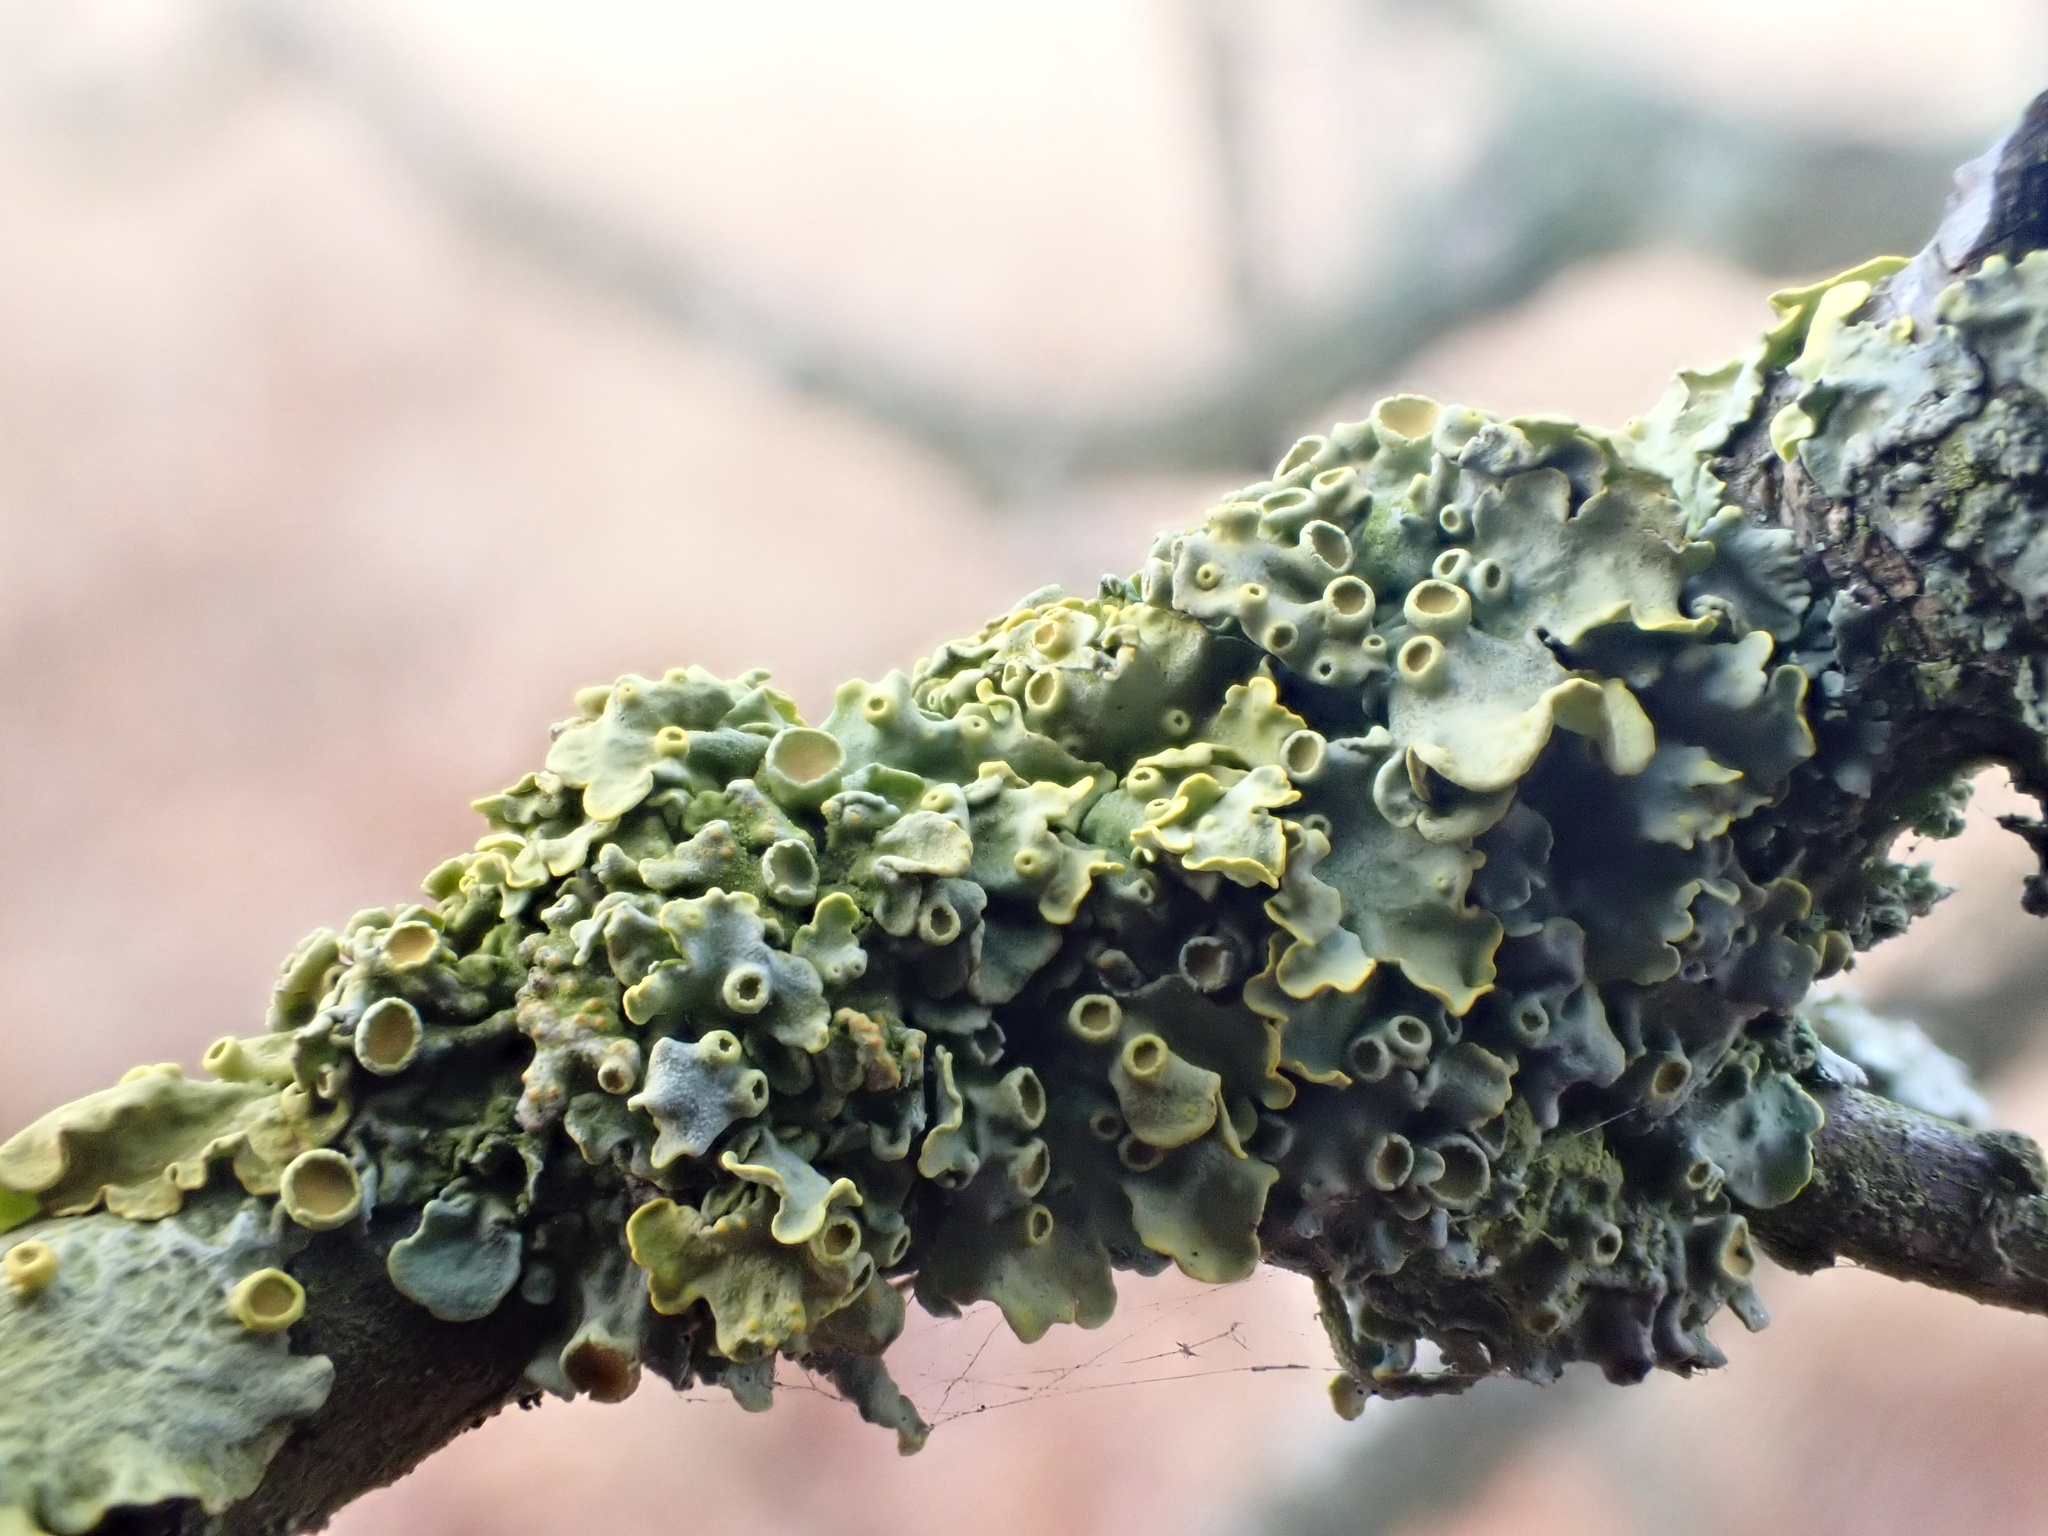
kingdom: Fungi
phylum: Ascomycota
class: Lecanoromycetes
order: Teloschistales
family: Teloschistaceae
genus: Xanthoria
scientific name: Xanthoria parietina
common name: Common orange lichen
